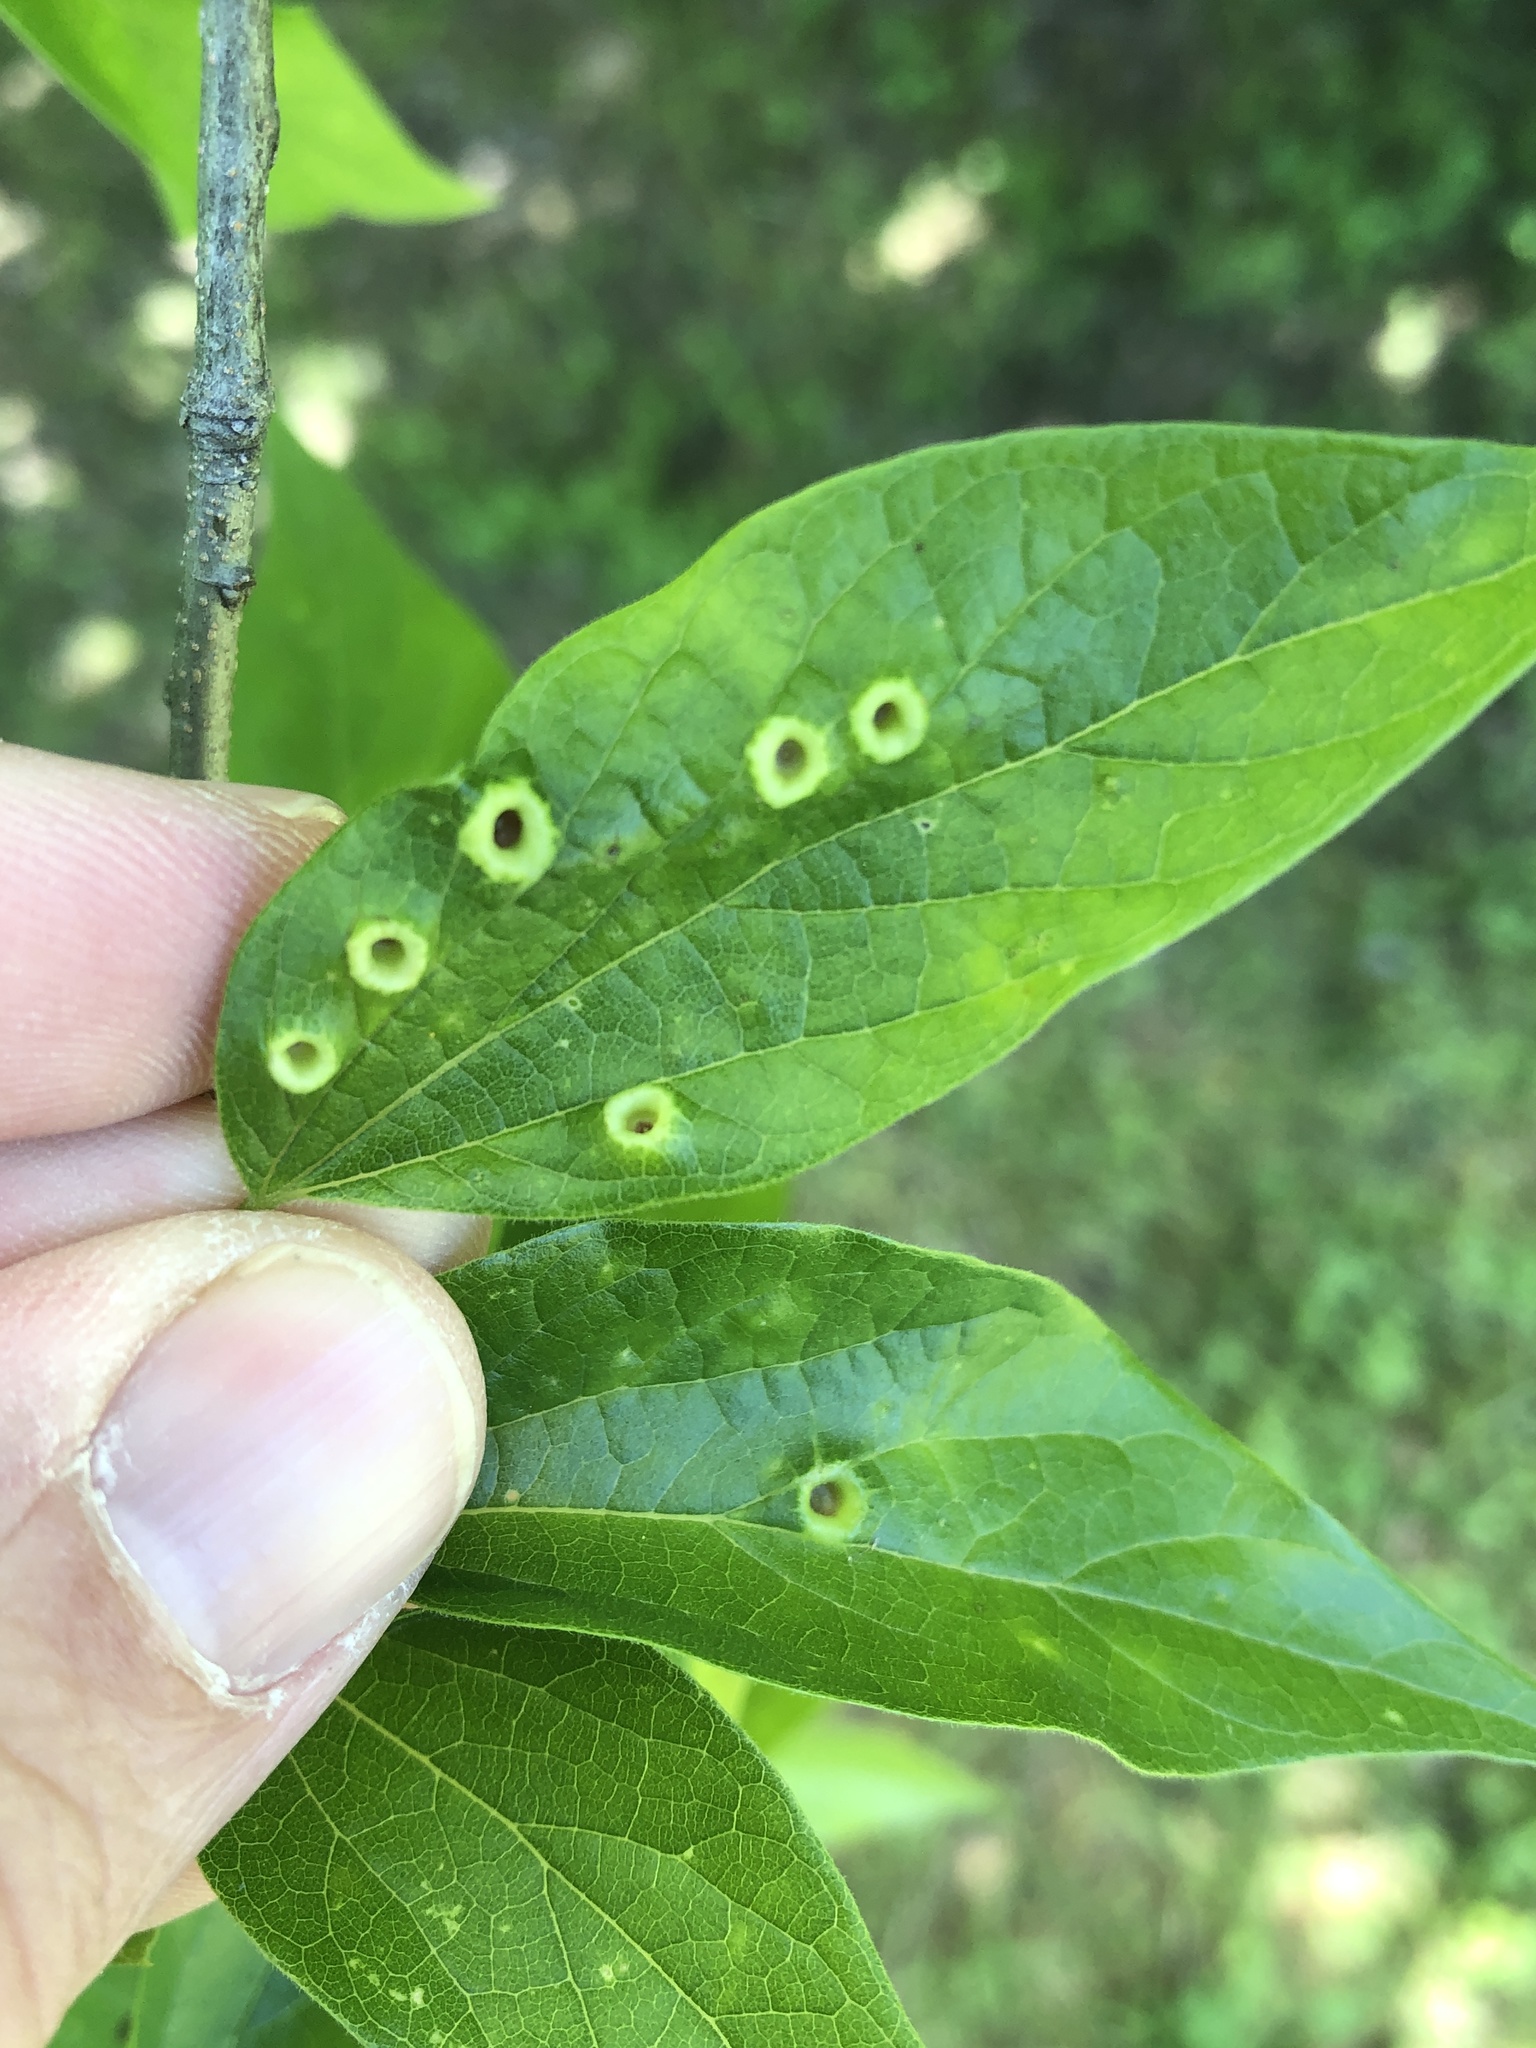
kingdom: Animalia
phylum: Arthropoda
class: Insecta
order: Hemiptera
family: Aphalaridae
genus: Pachypsylla
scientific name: Pachypsylla celtidismamma
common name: Hackberry nipplegall psyllid
